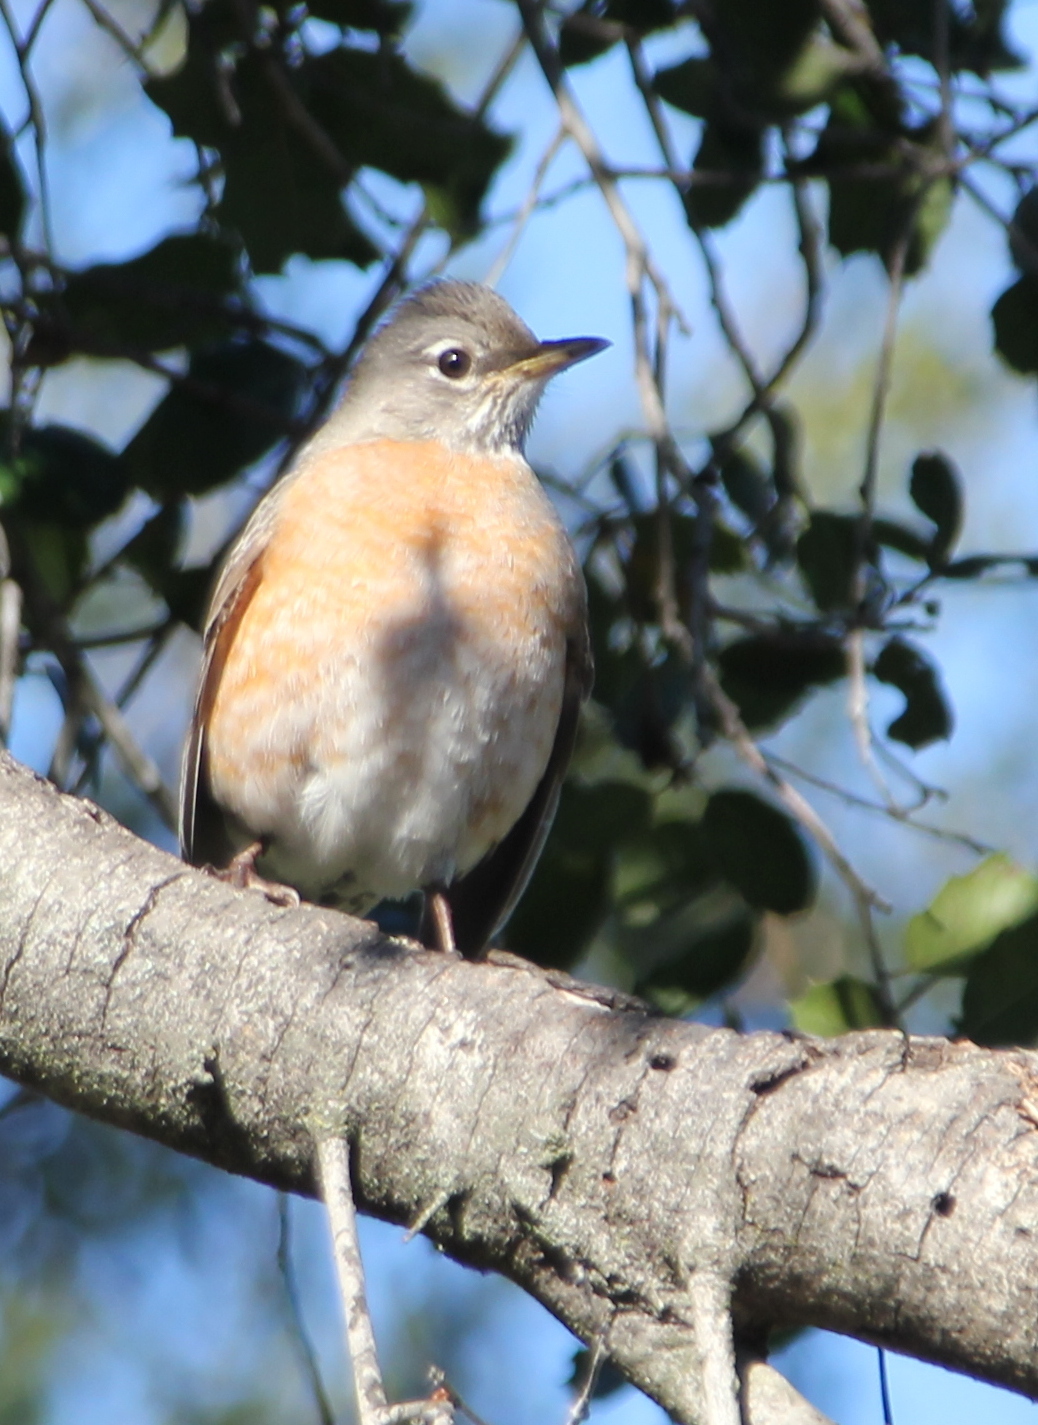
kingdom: Animalia
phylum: Chordata
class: Aves
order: Passeriformes
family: Turdidae
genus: Turdus
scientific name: Turdus migratorius
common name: American robin
